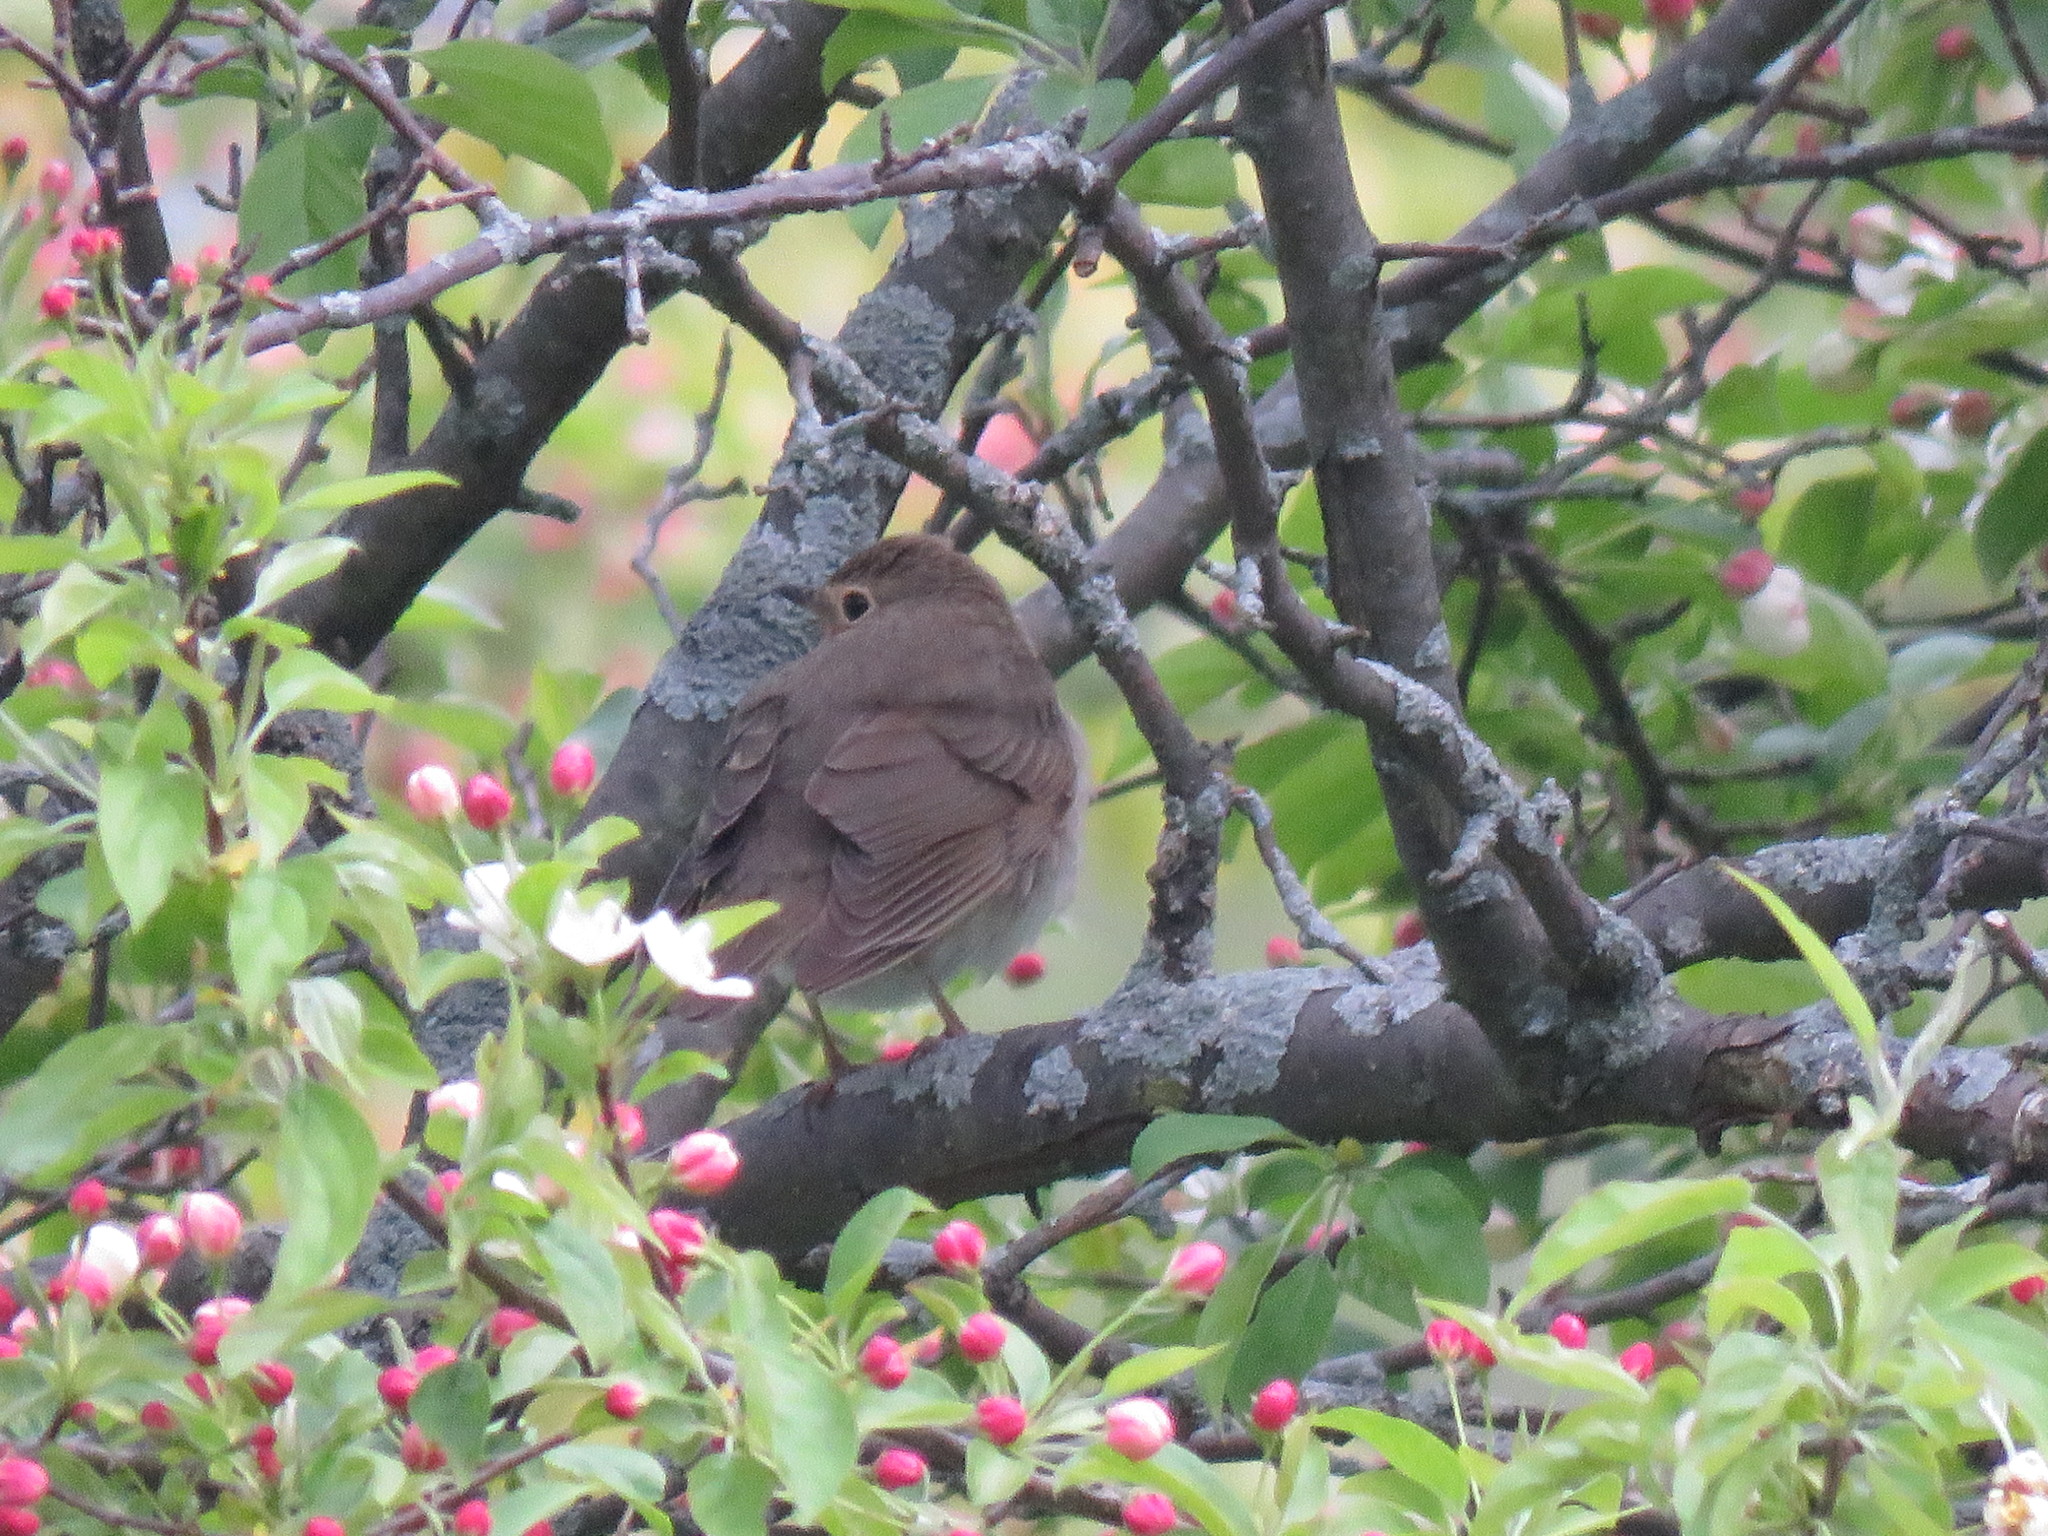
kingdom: Animalia
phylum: Chordata
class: Aves
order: Passeriformes
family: Turdidae
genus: Catharus
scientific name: Catharus ustulatus
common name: Swainson's thrush
